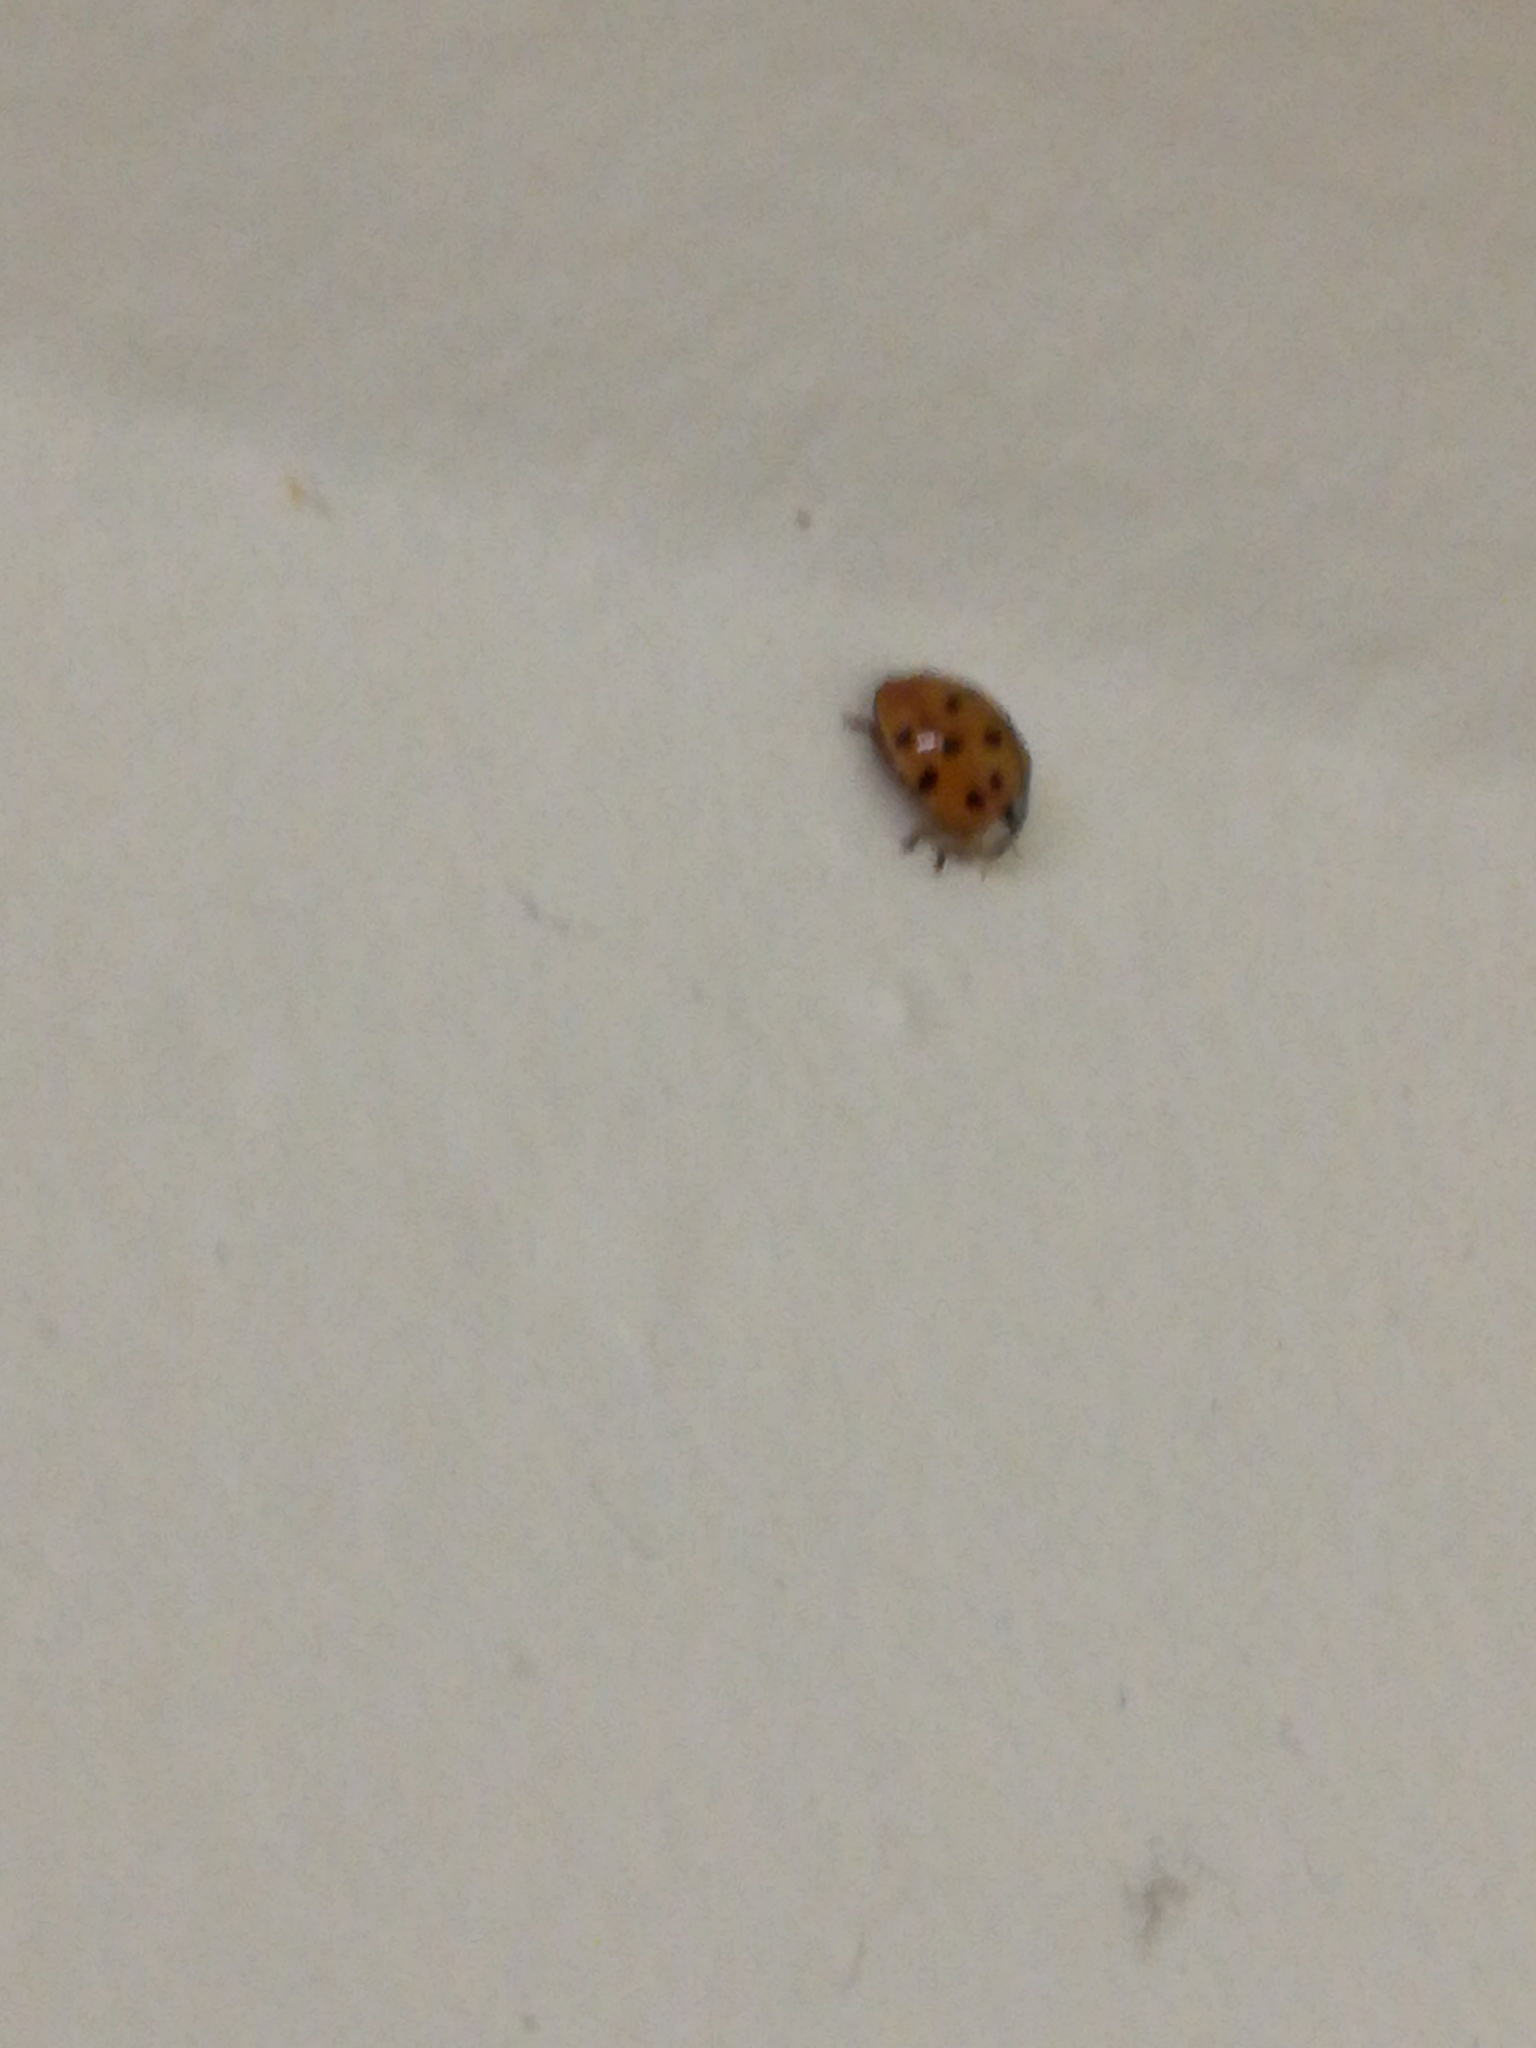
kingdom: Animalia
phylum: Arthropoda
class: Insecta
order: Coleoptera
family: Coccinellidae
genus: Harmonia
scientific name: Harmonia axyridis
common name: Harlequin ladybird
